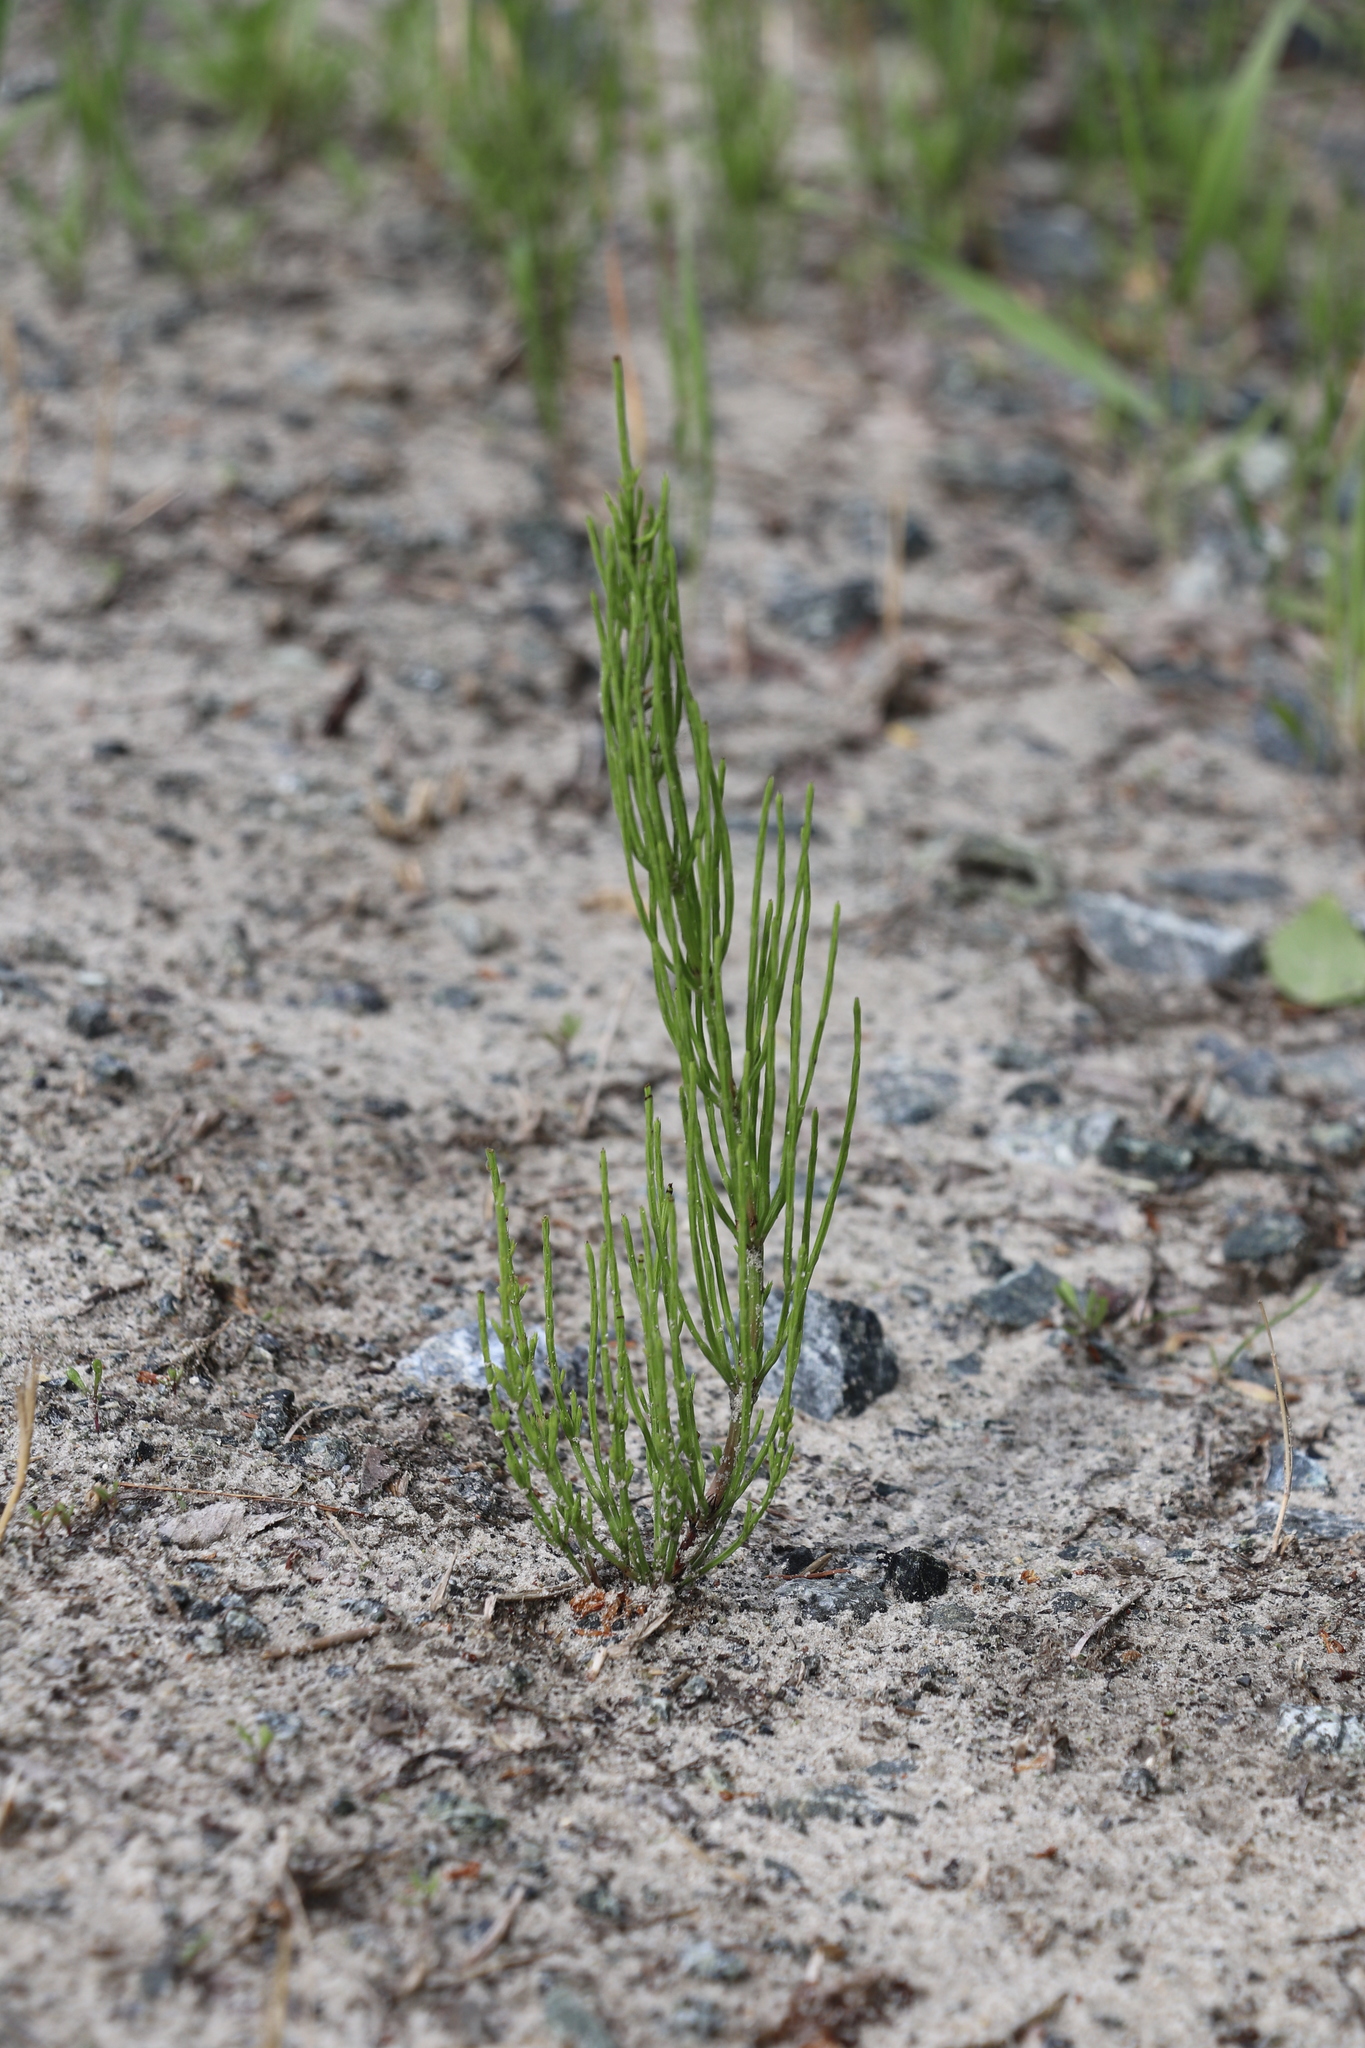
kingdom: Plantae
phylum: Tracheophyta
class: Polypodiopsida
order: Equisetales
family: Equisetaceae
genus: Equisetum
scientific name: Equisetum arvense
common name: Field horsetail
